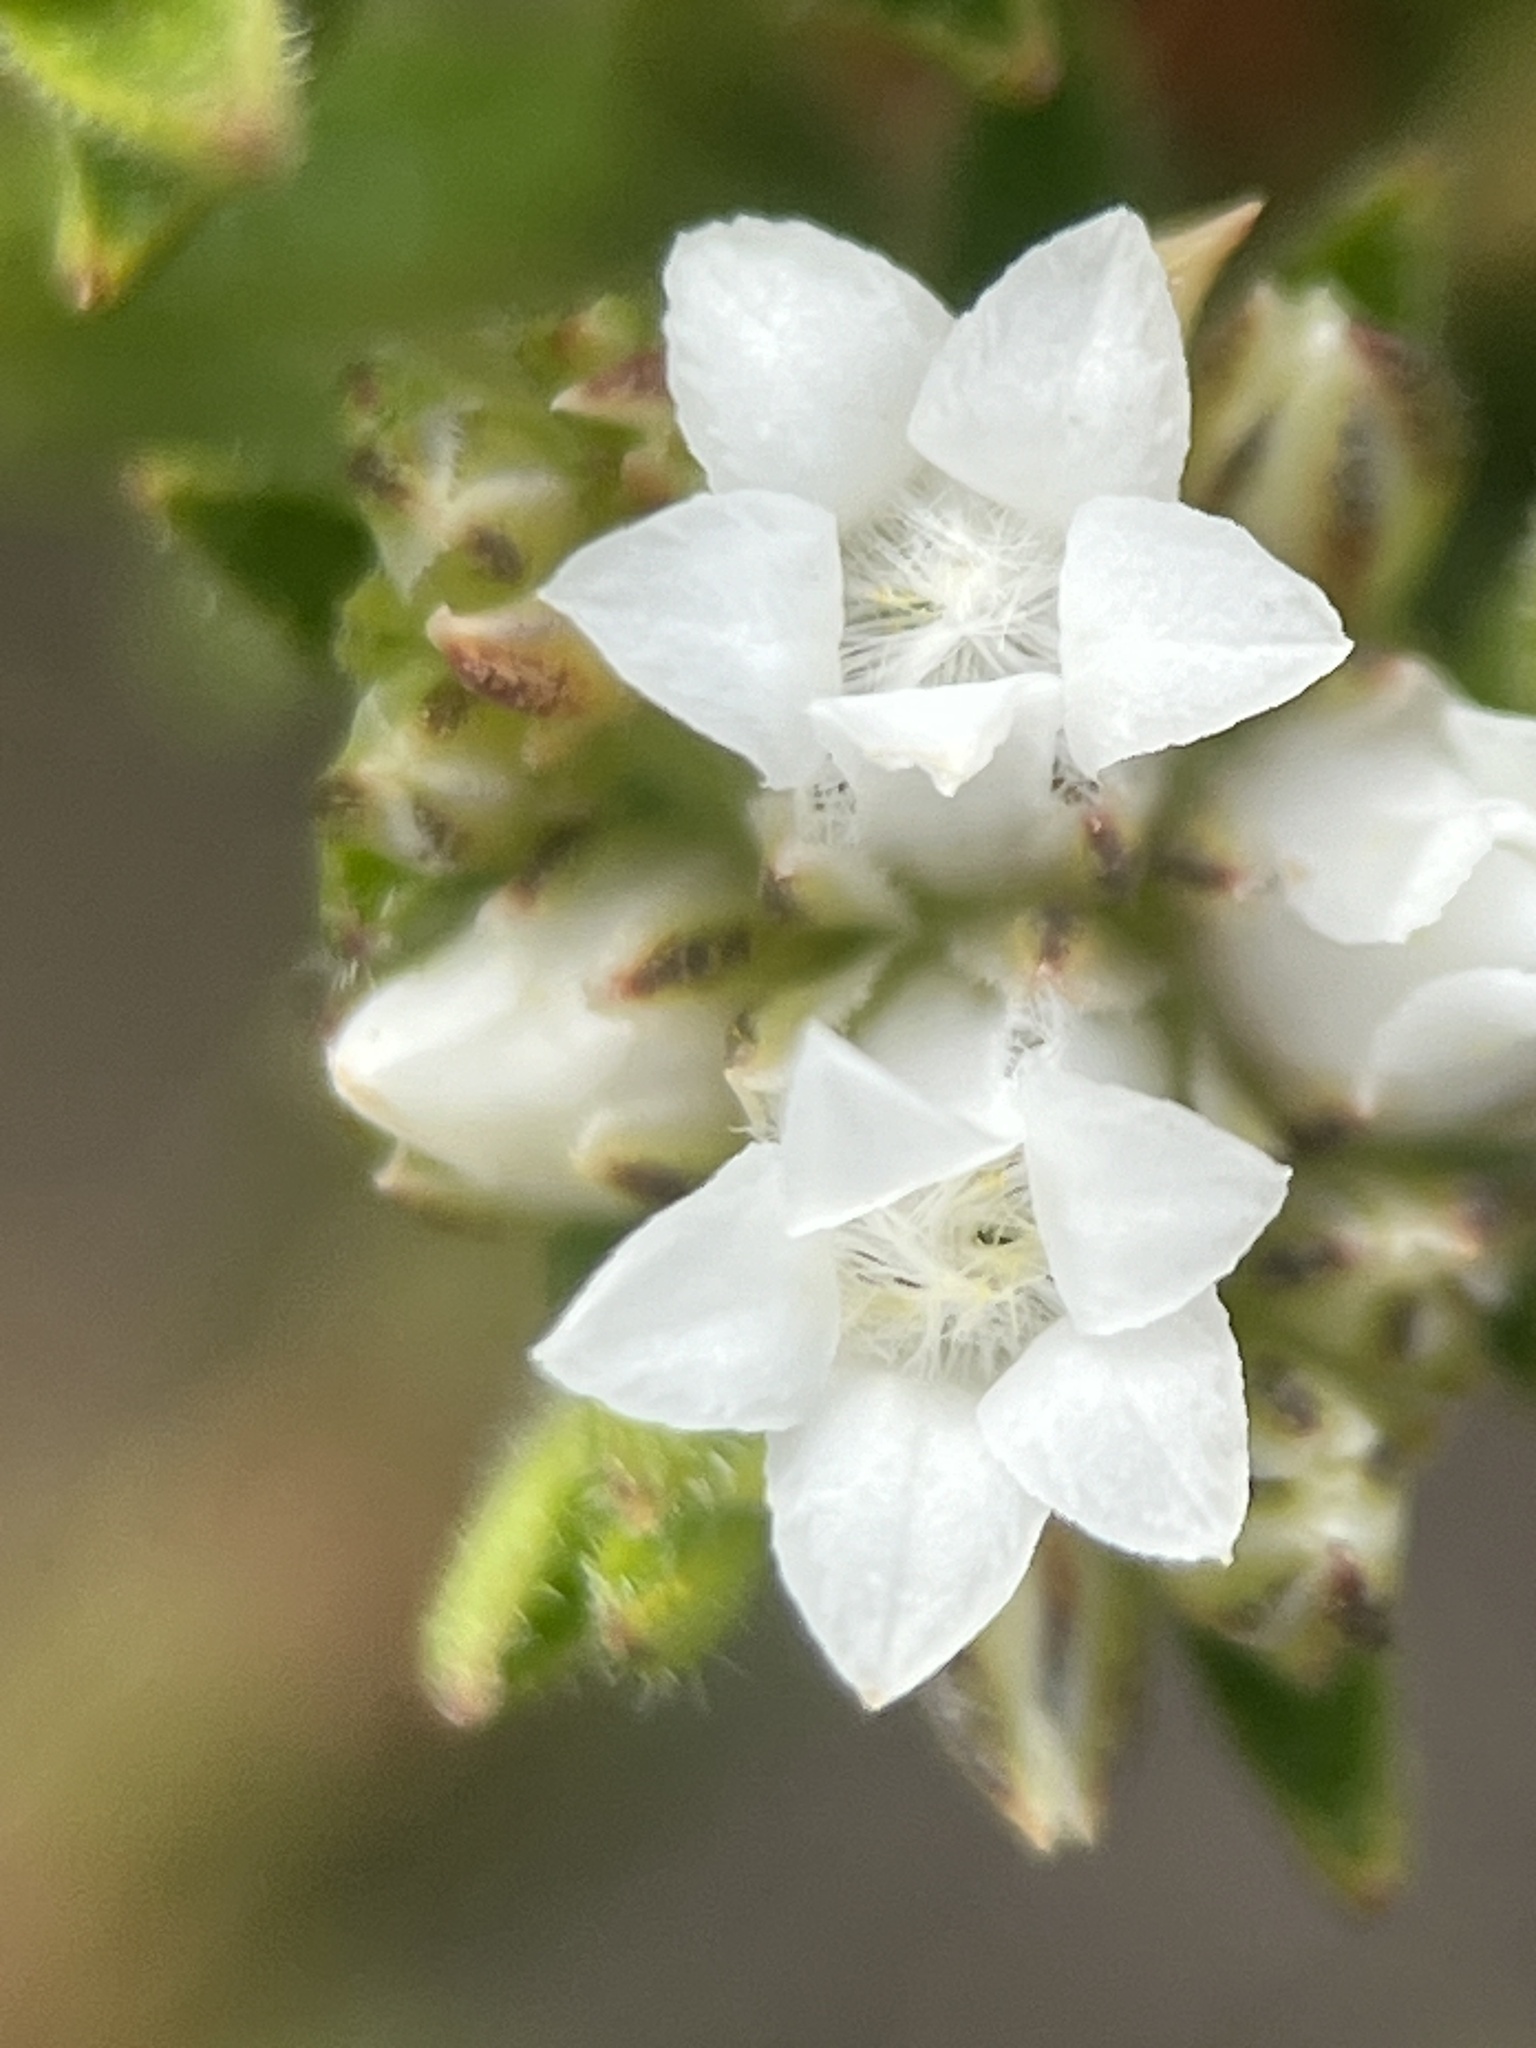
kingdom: Plantae
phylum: Tracheophyta
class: Magnoliopsida
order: Sapindales
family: Rutaceae
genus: Euchaetis
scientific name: Euchaetis diosmoides
